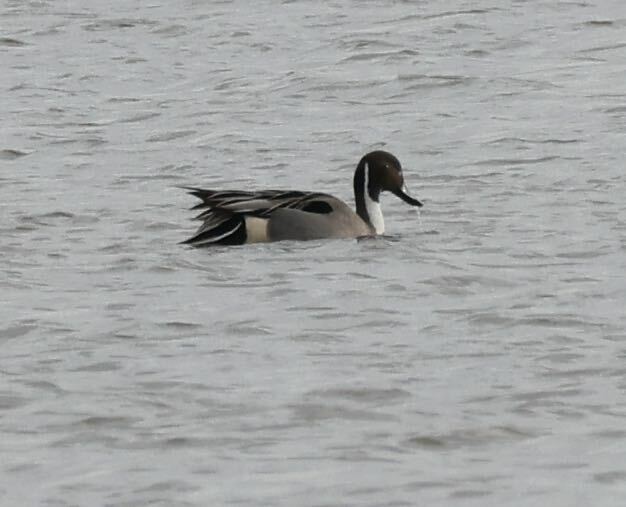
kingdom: Animalia
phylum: Chordata
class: Aves
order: Anseriformes
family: Anatidae
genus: Anas
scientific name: Anas acuta
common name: Northern pintail
